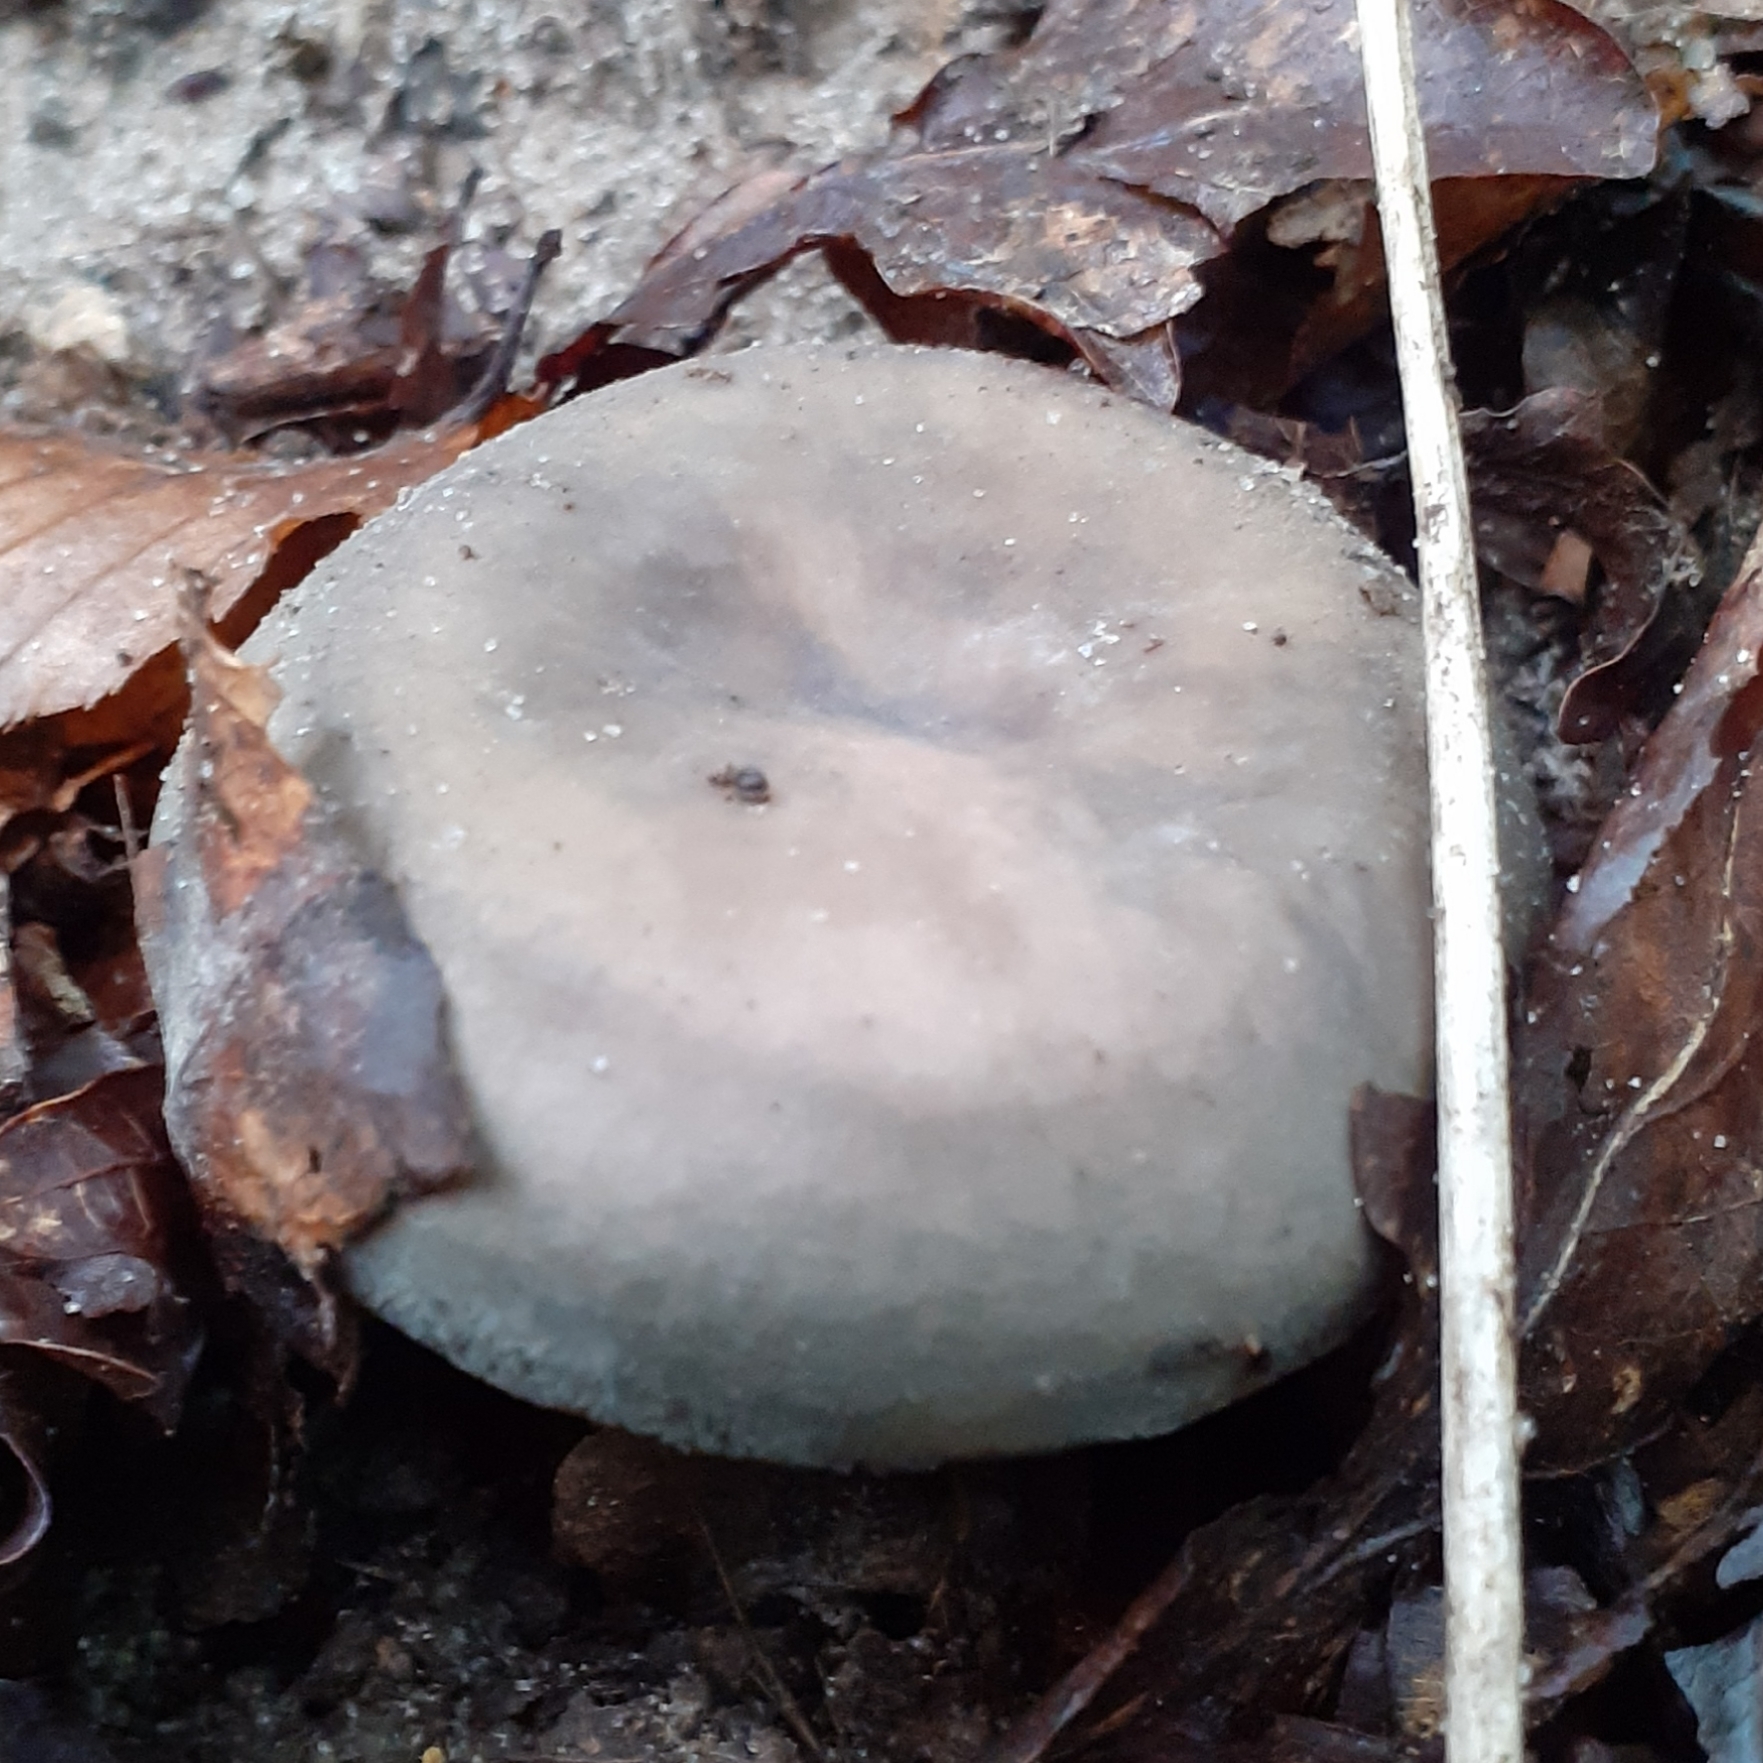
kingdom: Fungi
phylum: Basidiomycota
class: Agaricomycetes
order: Russulales
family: Russulaceae
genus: Russula
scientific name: Russula cyanoxantha
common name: Charcoal burner
